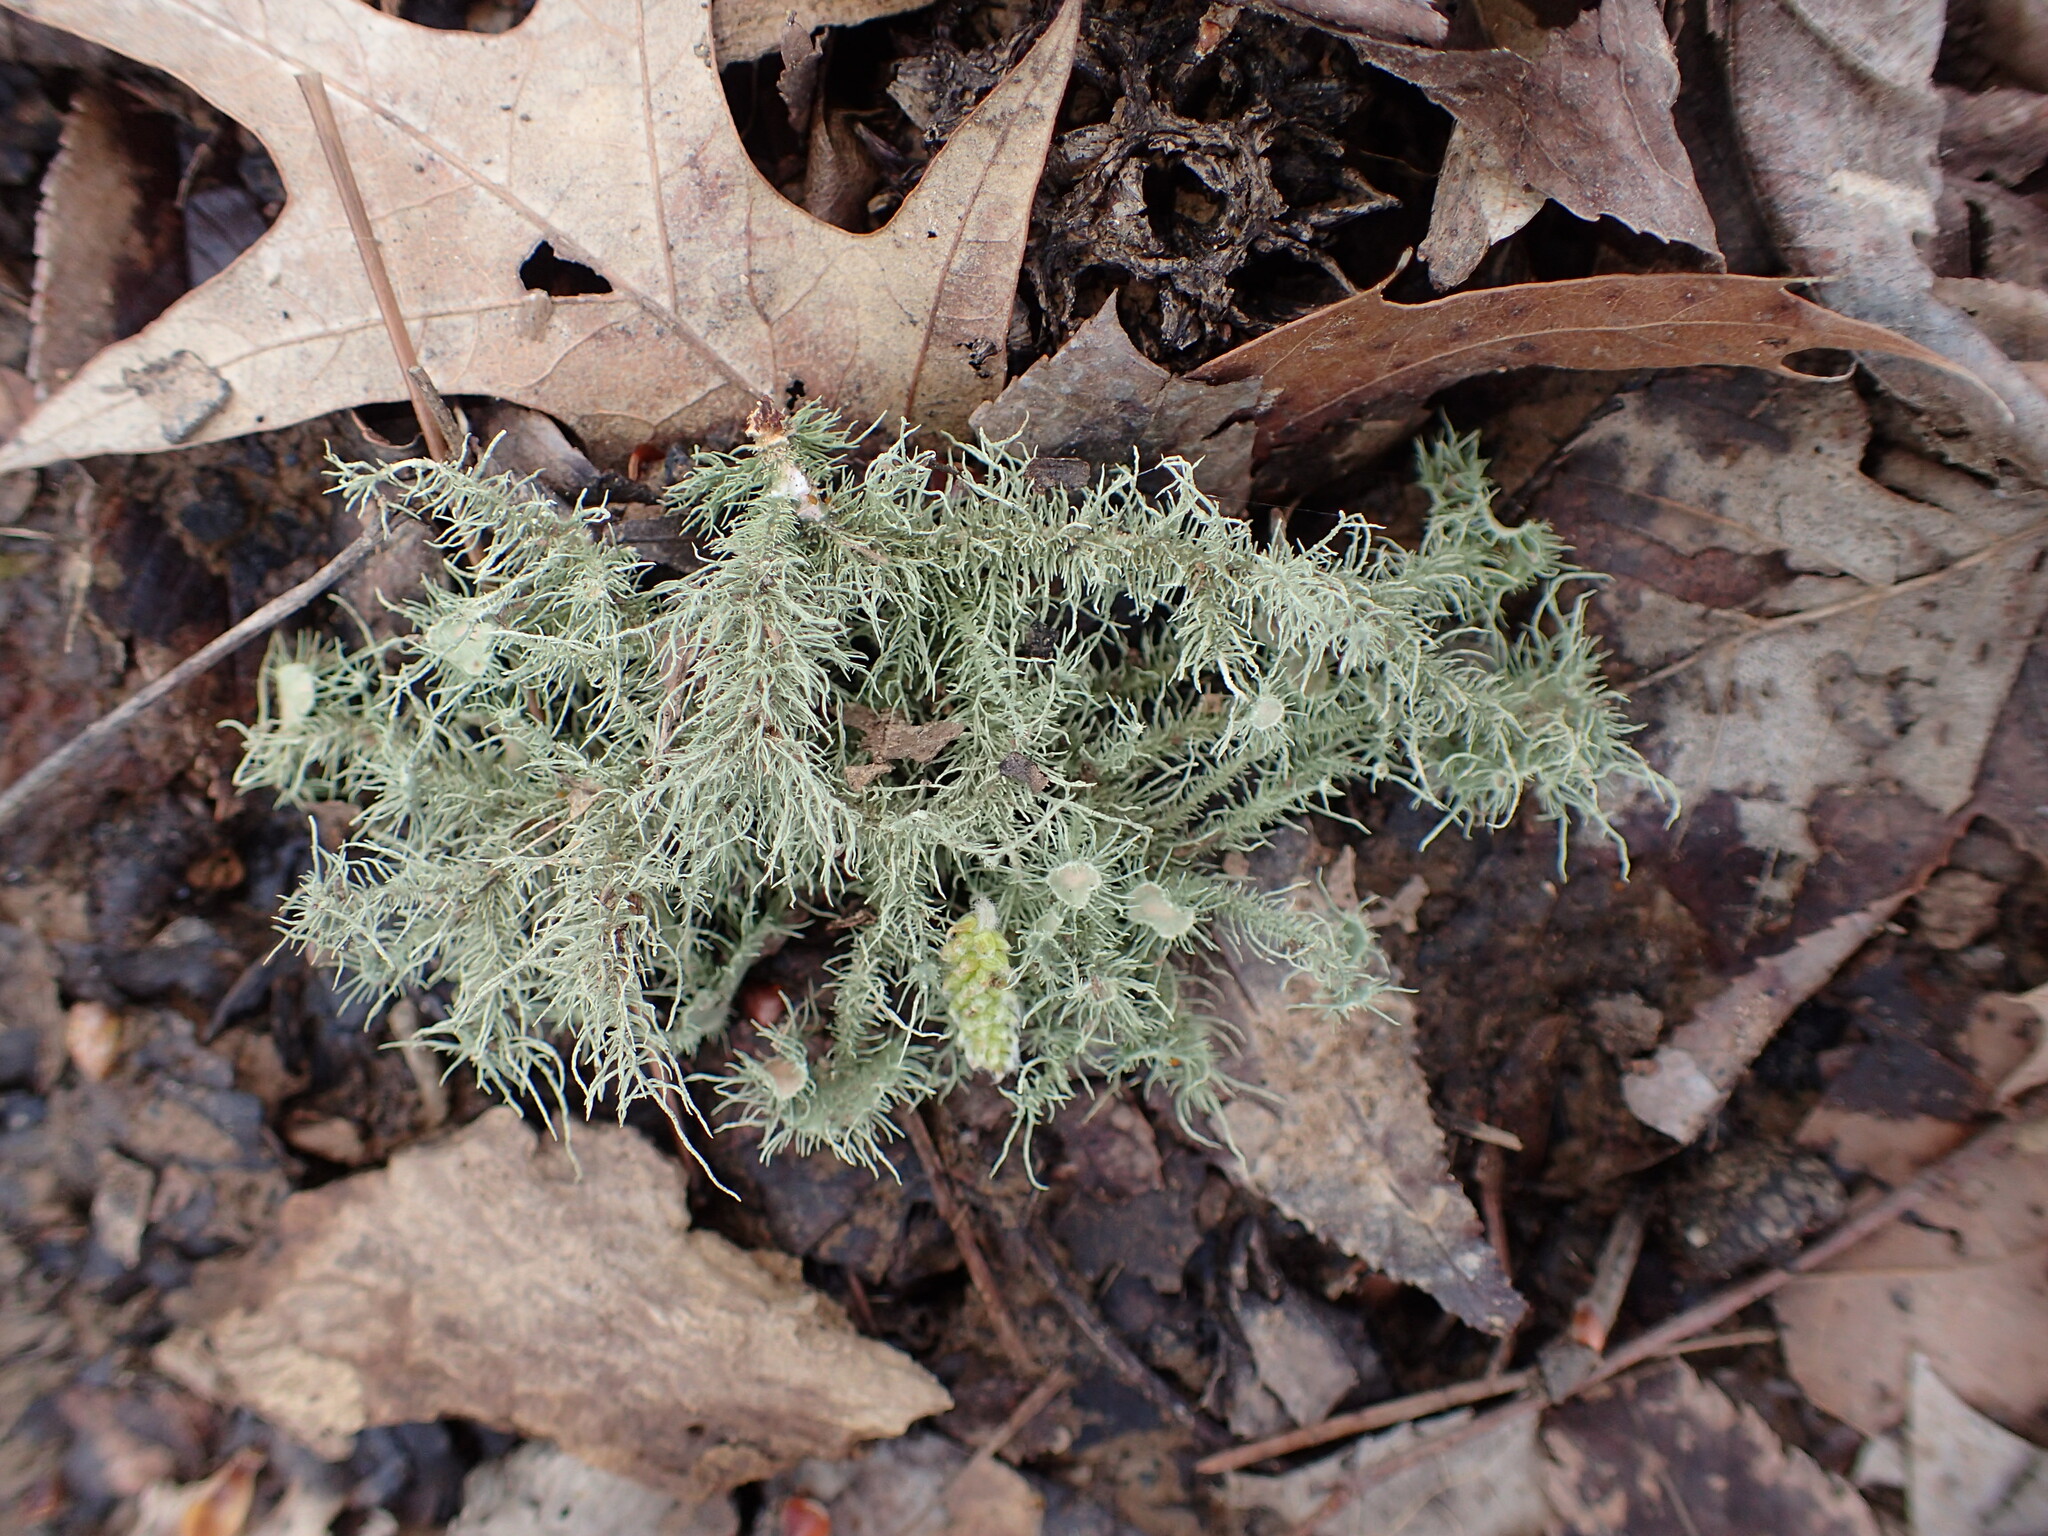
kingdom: Fungi
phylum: Ascomycota
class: Lecanoromycetes
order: Lecanorales
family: Parmeliaceae
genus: Usnea
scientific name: Usnea strigosa
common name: Bushy beard lichen
